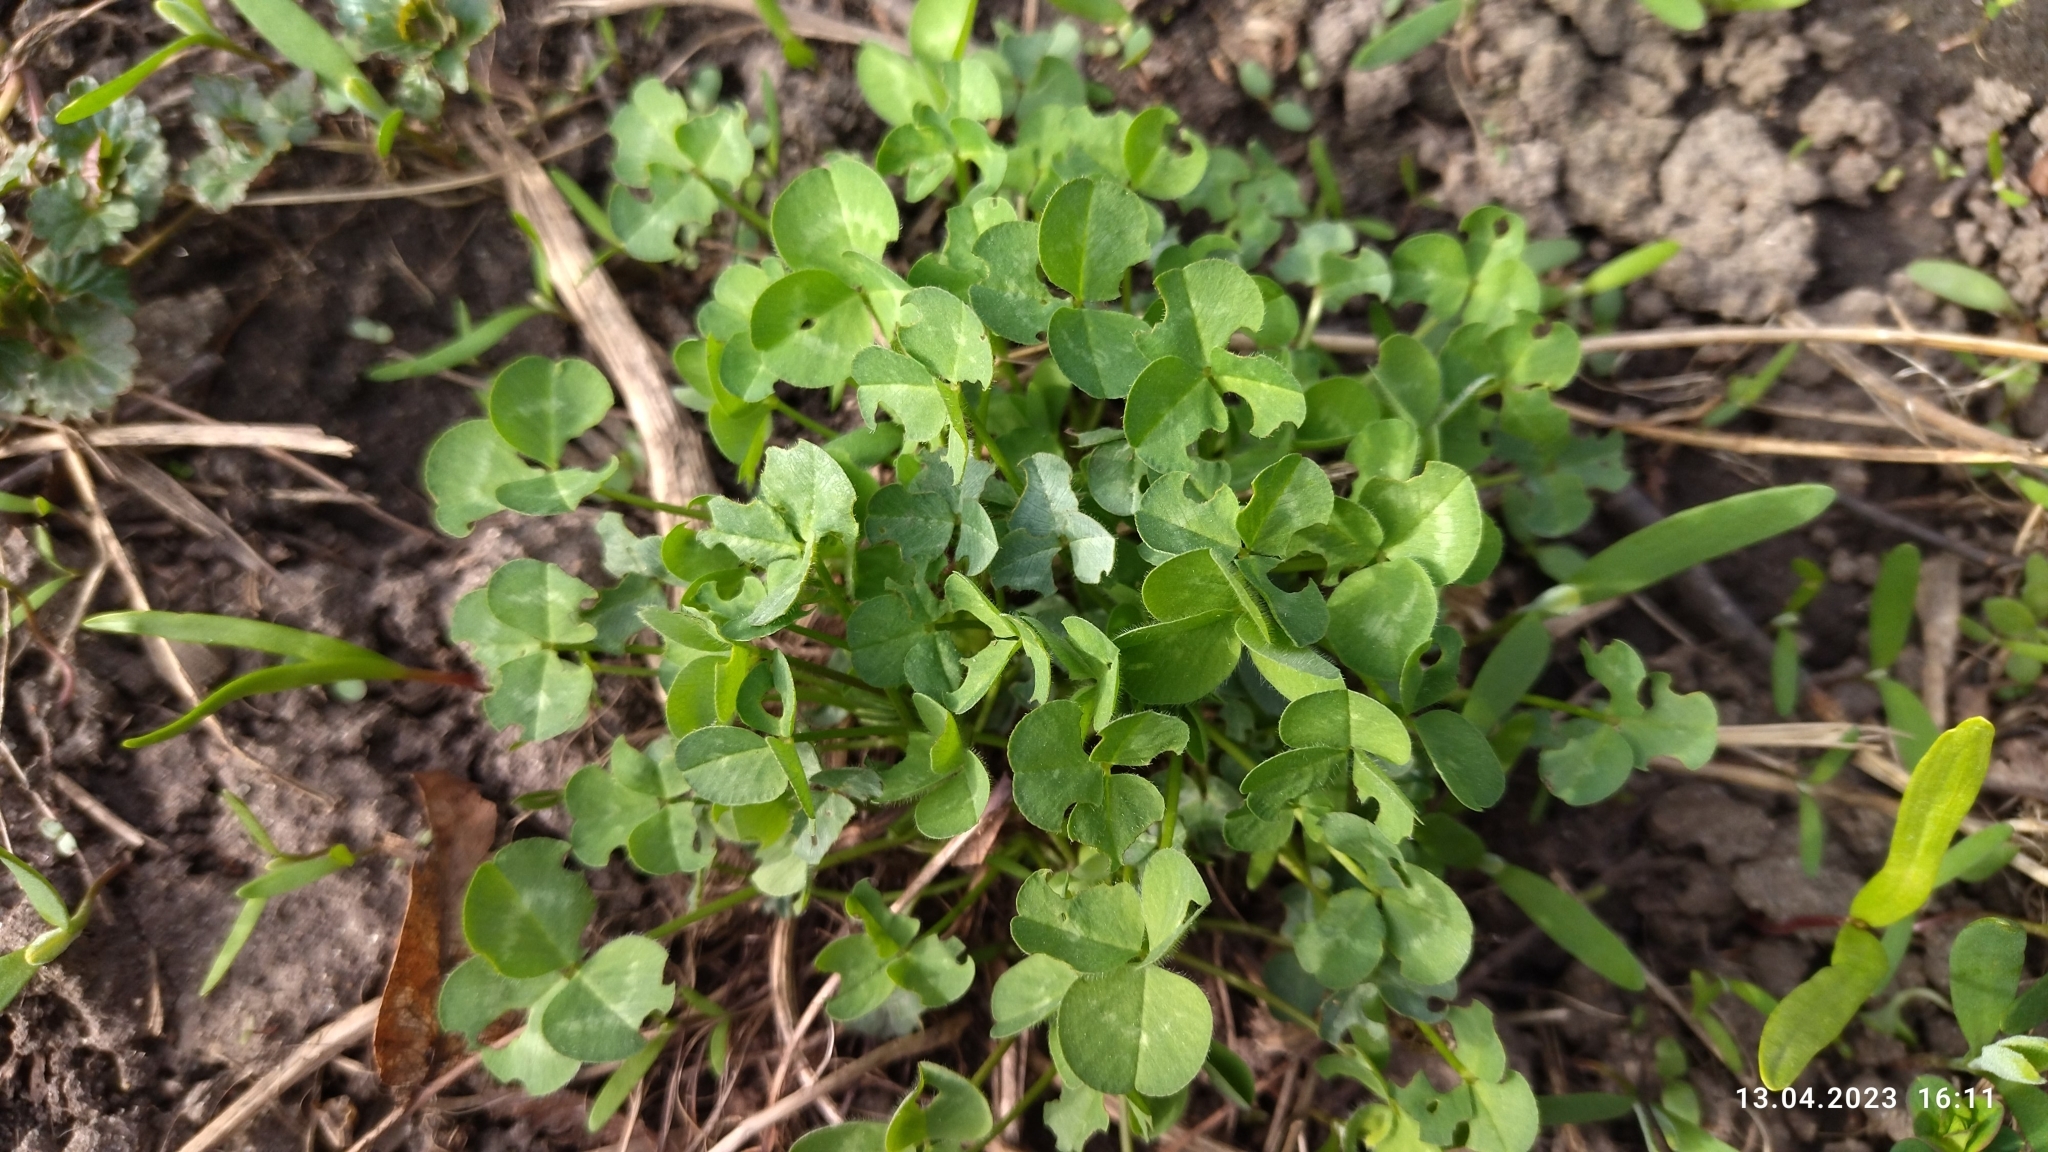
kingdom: Plantae
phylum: Tracheophyta
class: Magnoliopsida
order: Fabales
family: Fabaceae
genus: Trifolium
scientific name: Trifolium repens
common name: White clover
